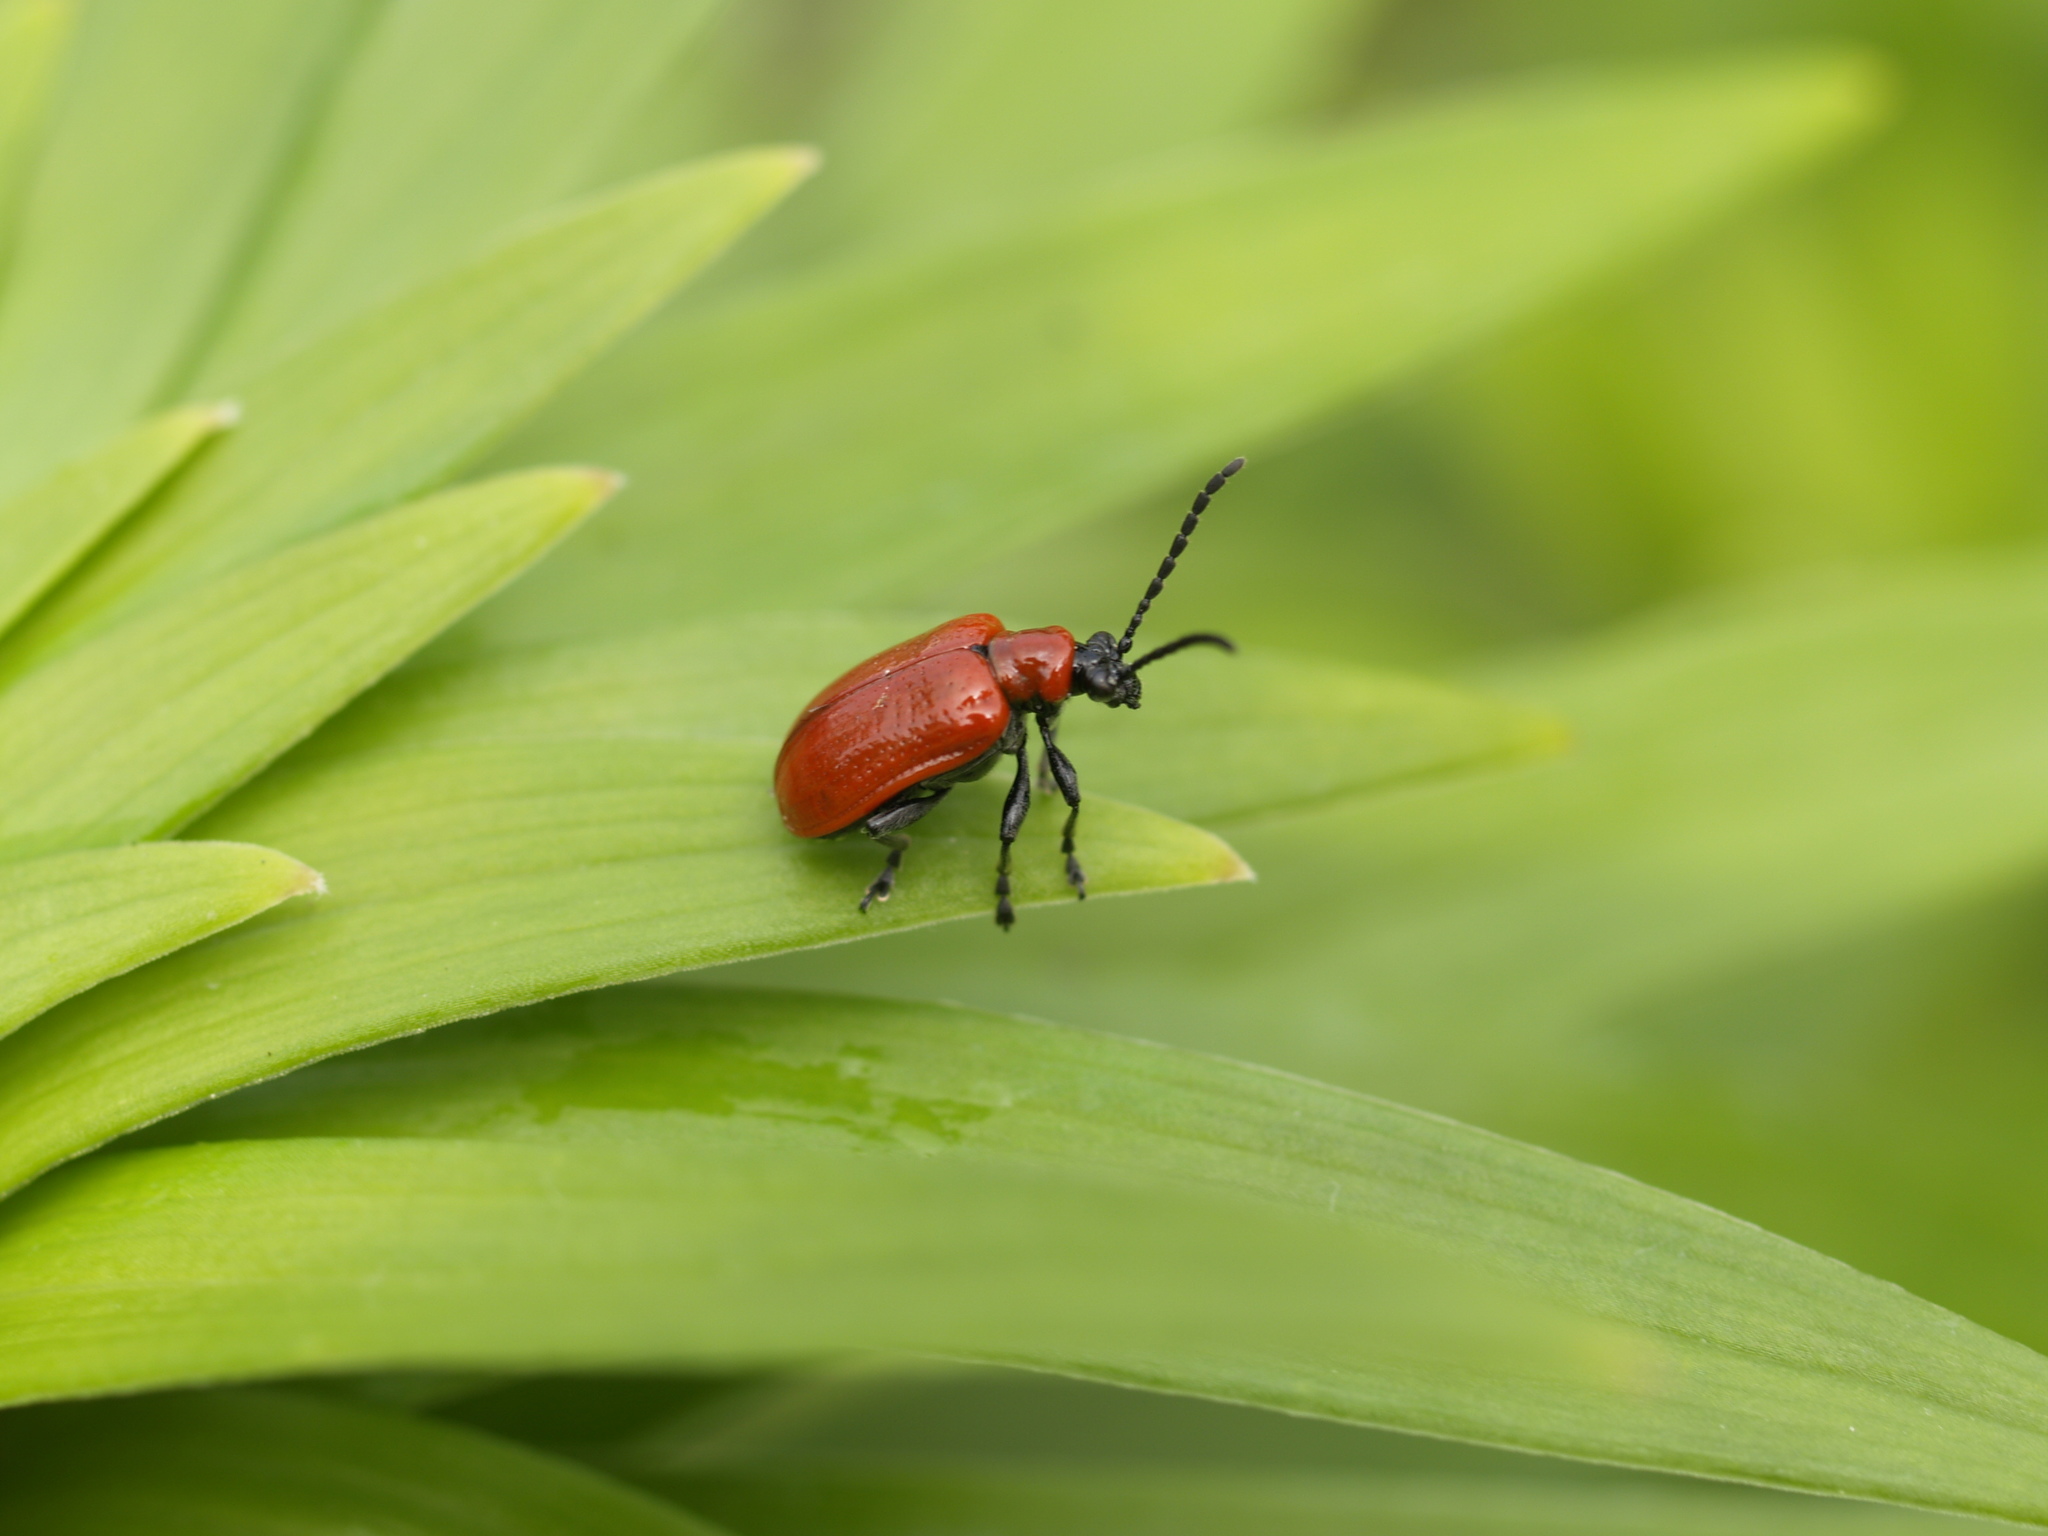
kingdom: Animalia
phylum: Arthropoda
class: Insecta
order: Coleoptera
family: Chrysomelidae
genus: Lilioceris
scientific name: Lilioceris lilii
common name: Lily beetle
